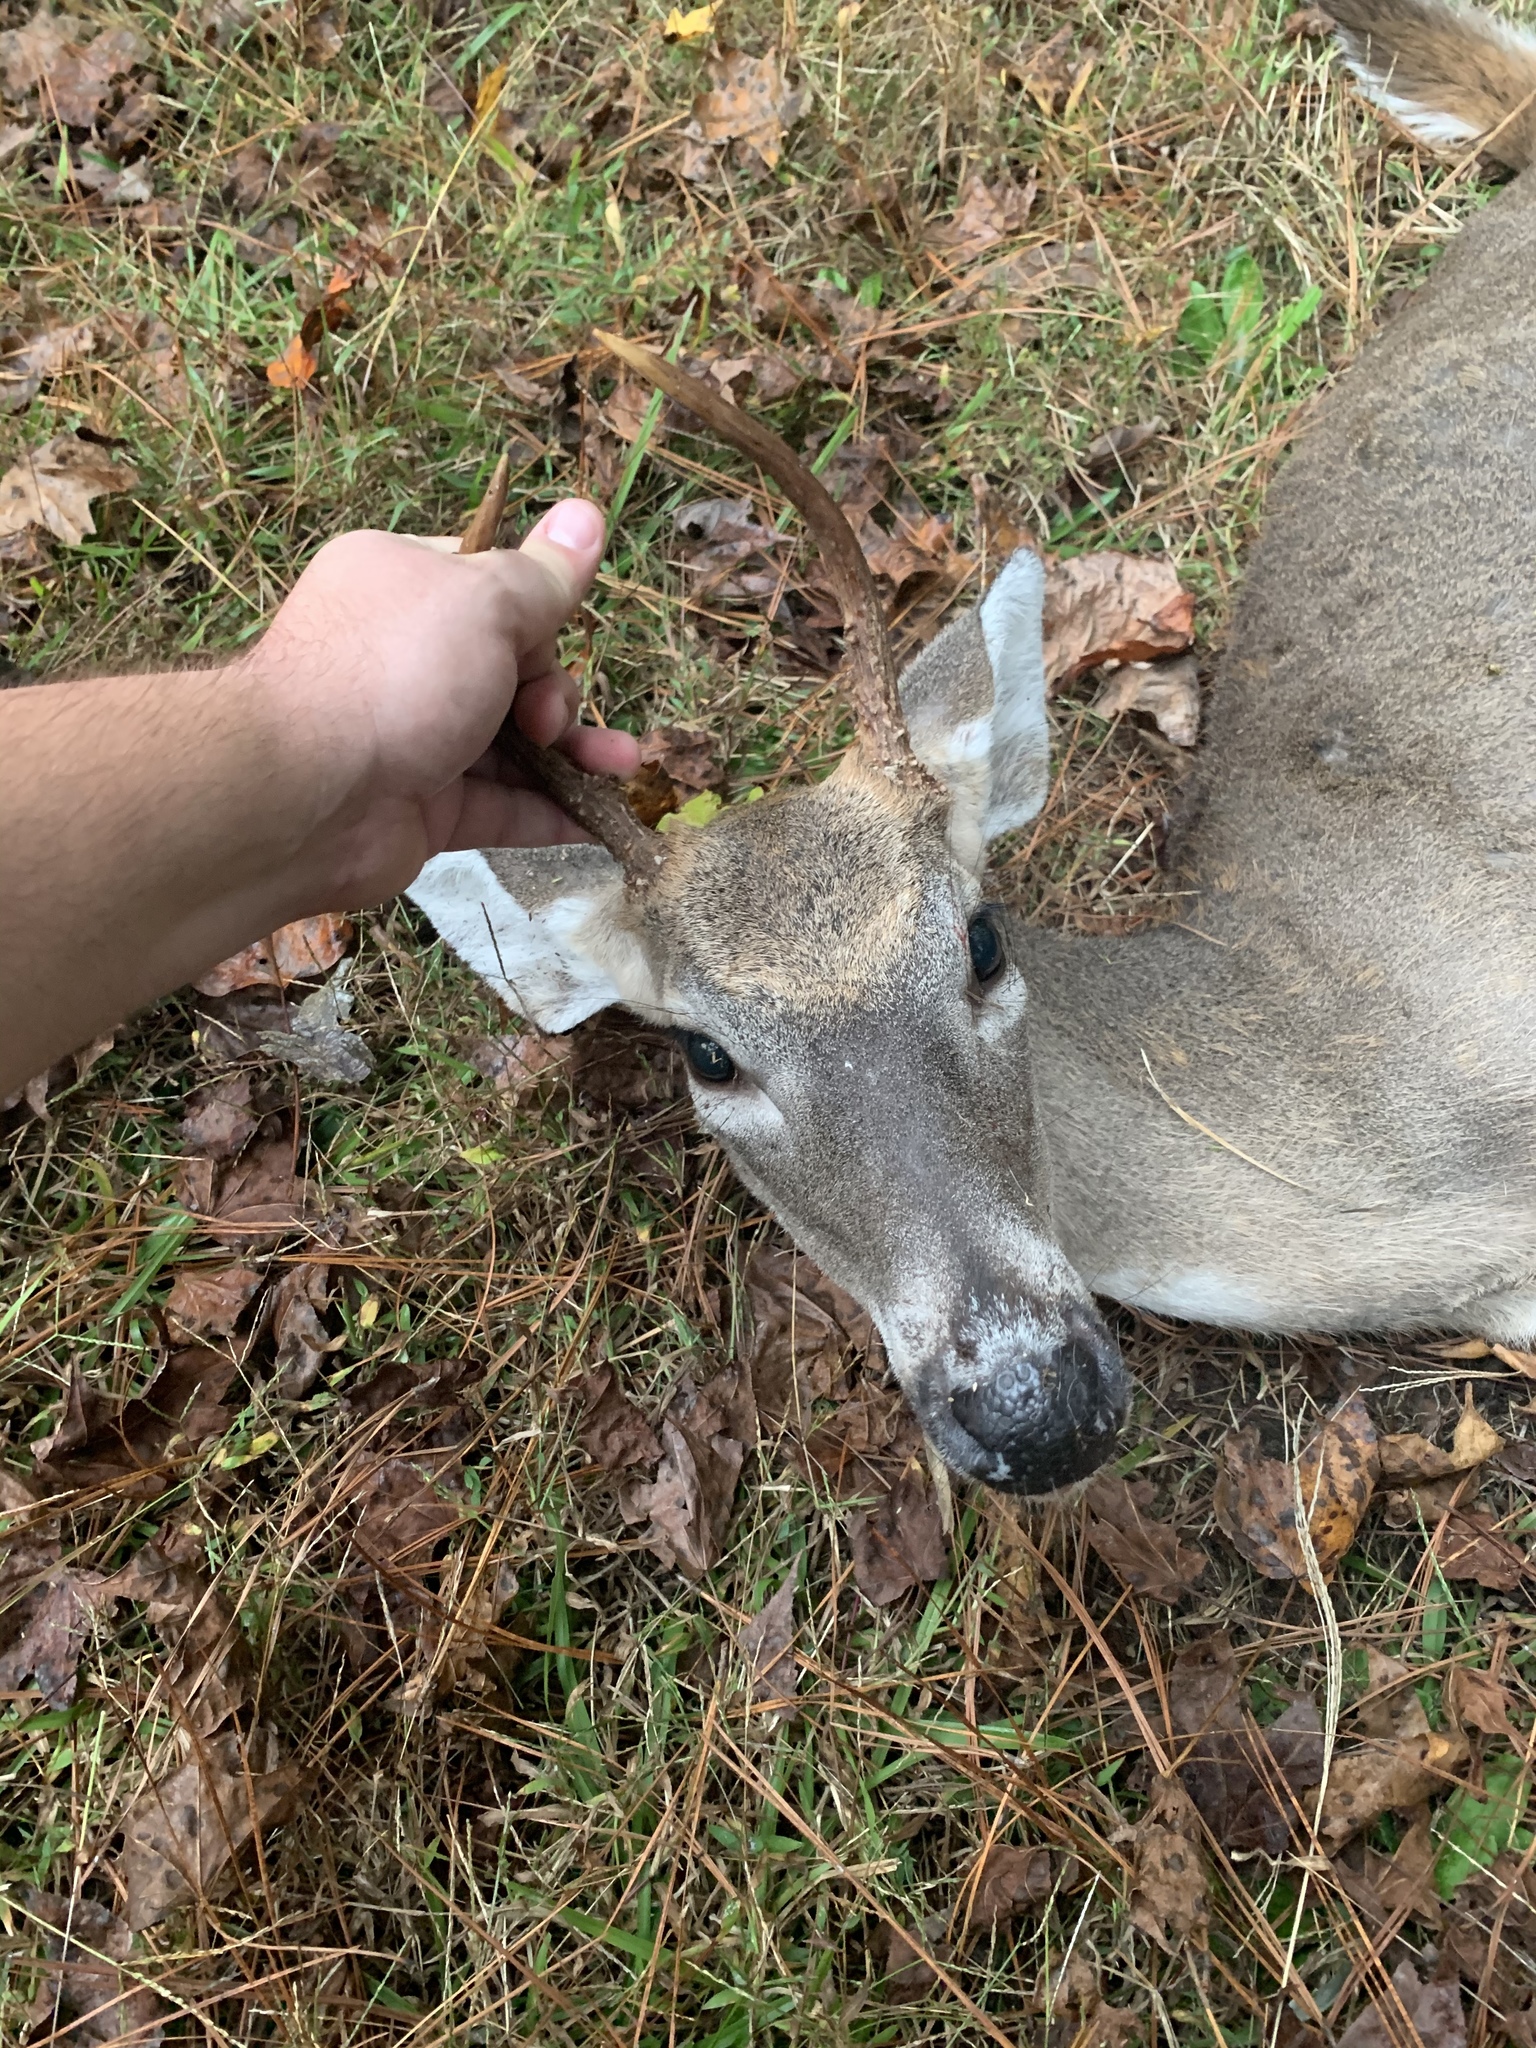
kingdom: Animalia
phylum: Chordata
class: Mammalia
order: Artiodactyla
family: Cervidae
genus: Odocoileus
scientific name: Odocoileus virginianus
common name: White-tailed deer
